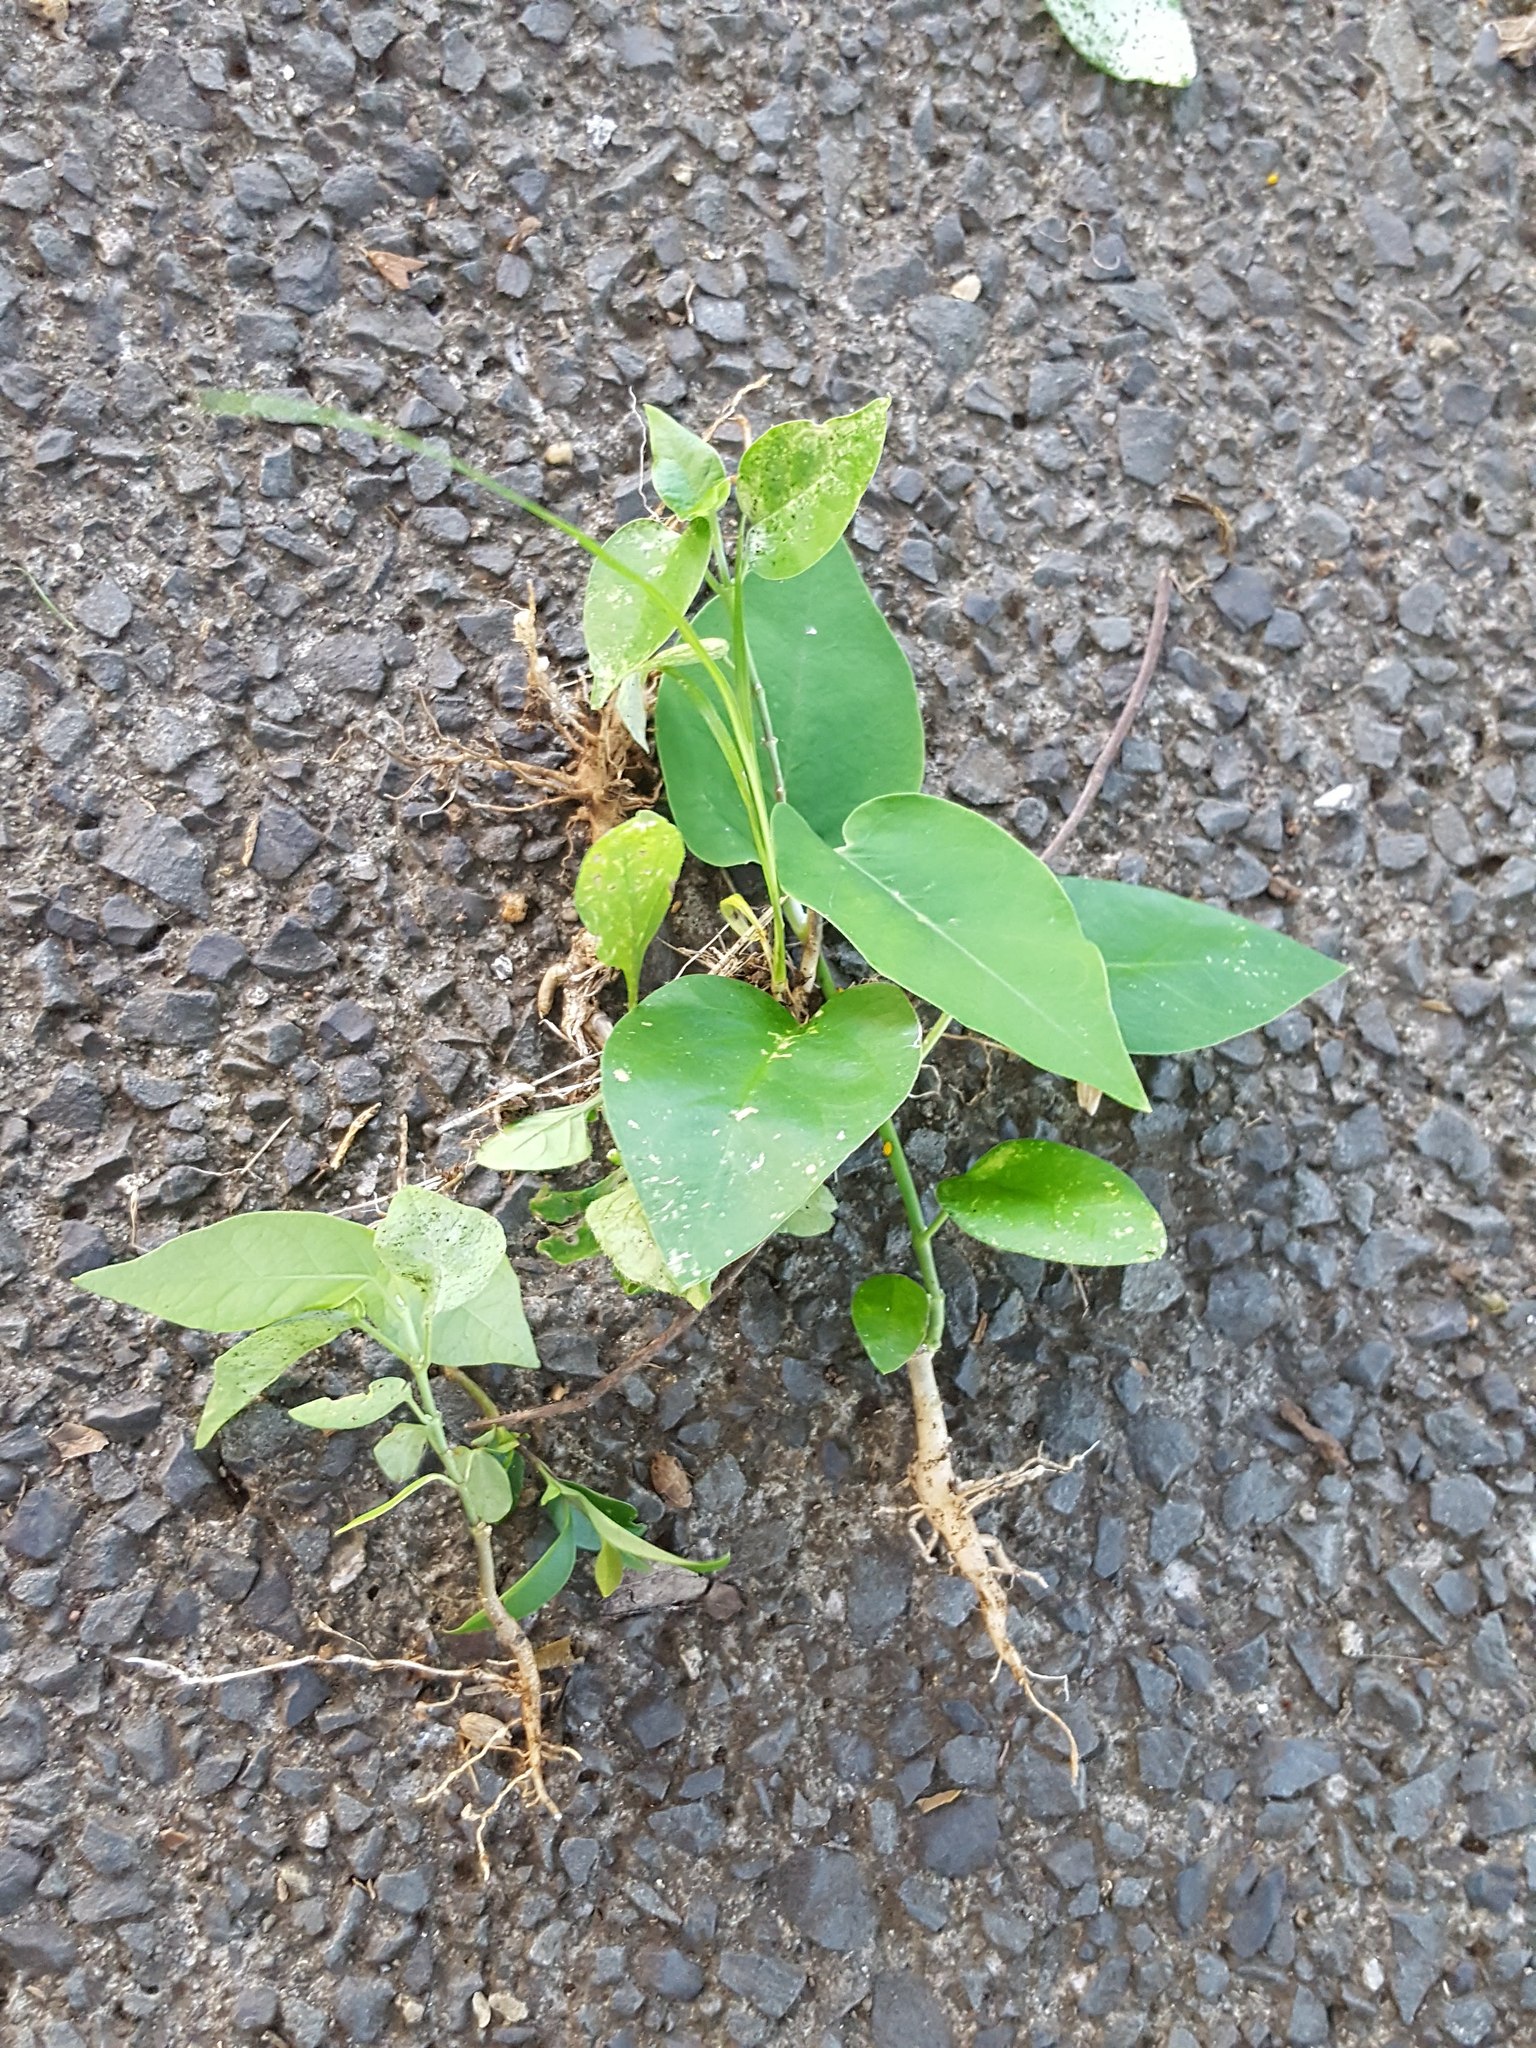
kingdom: Plantae
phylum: Tracheophyta
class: Magnoliopsida
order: Gentianales
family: Apocynaceae
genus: Araujia
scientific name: Araujia sericifera
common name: White bladderflower
